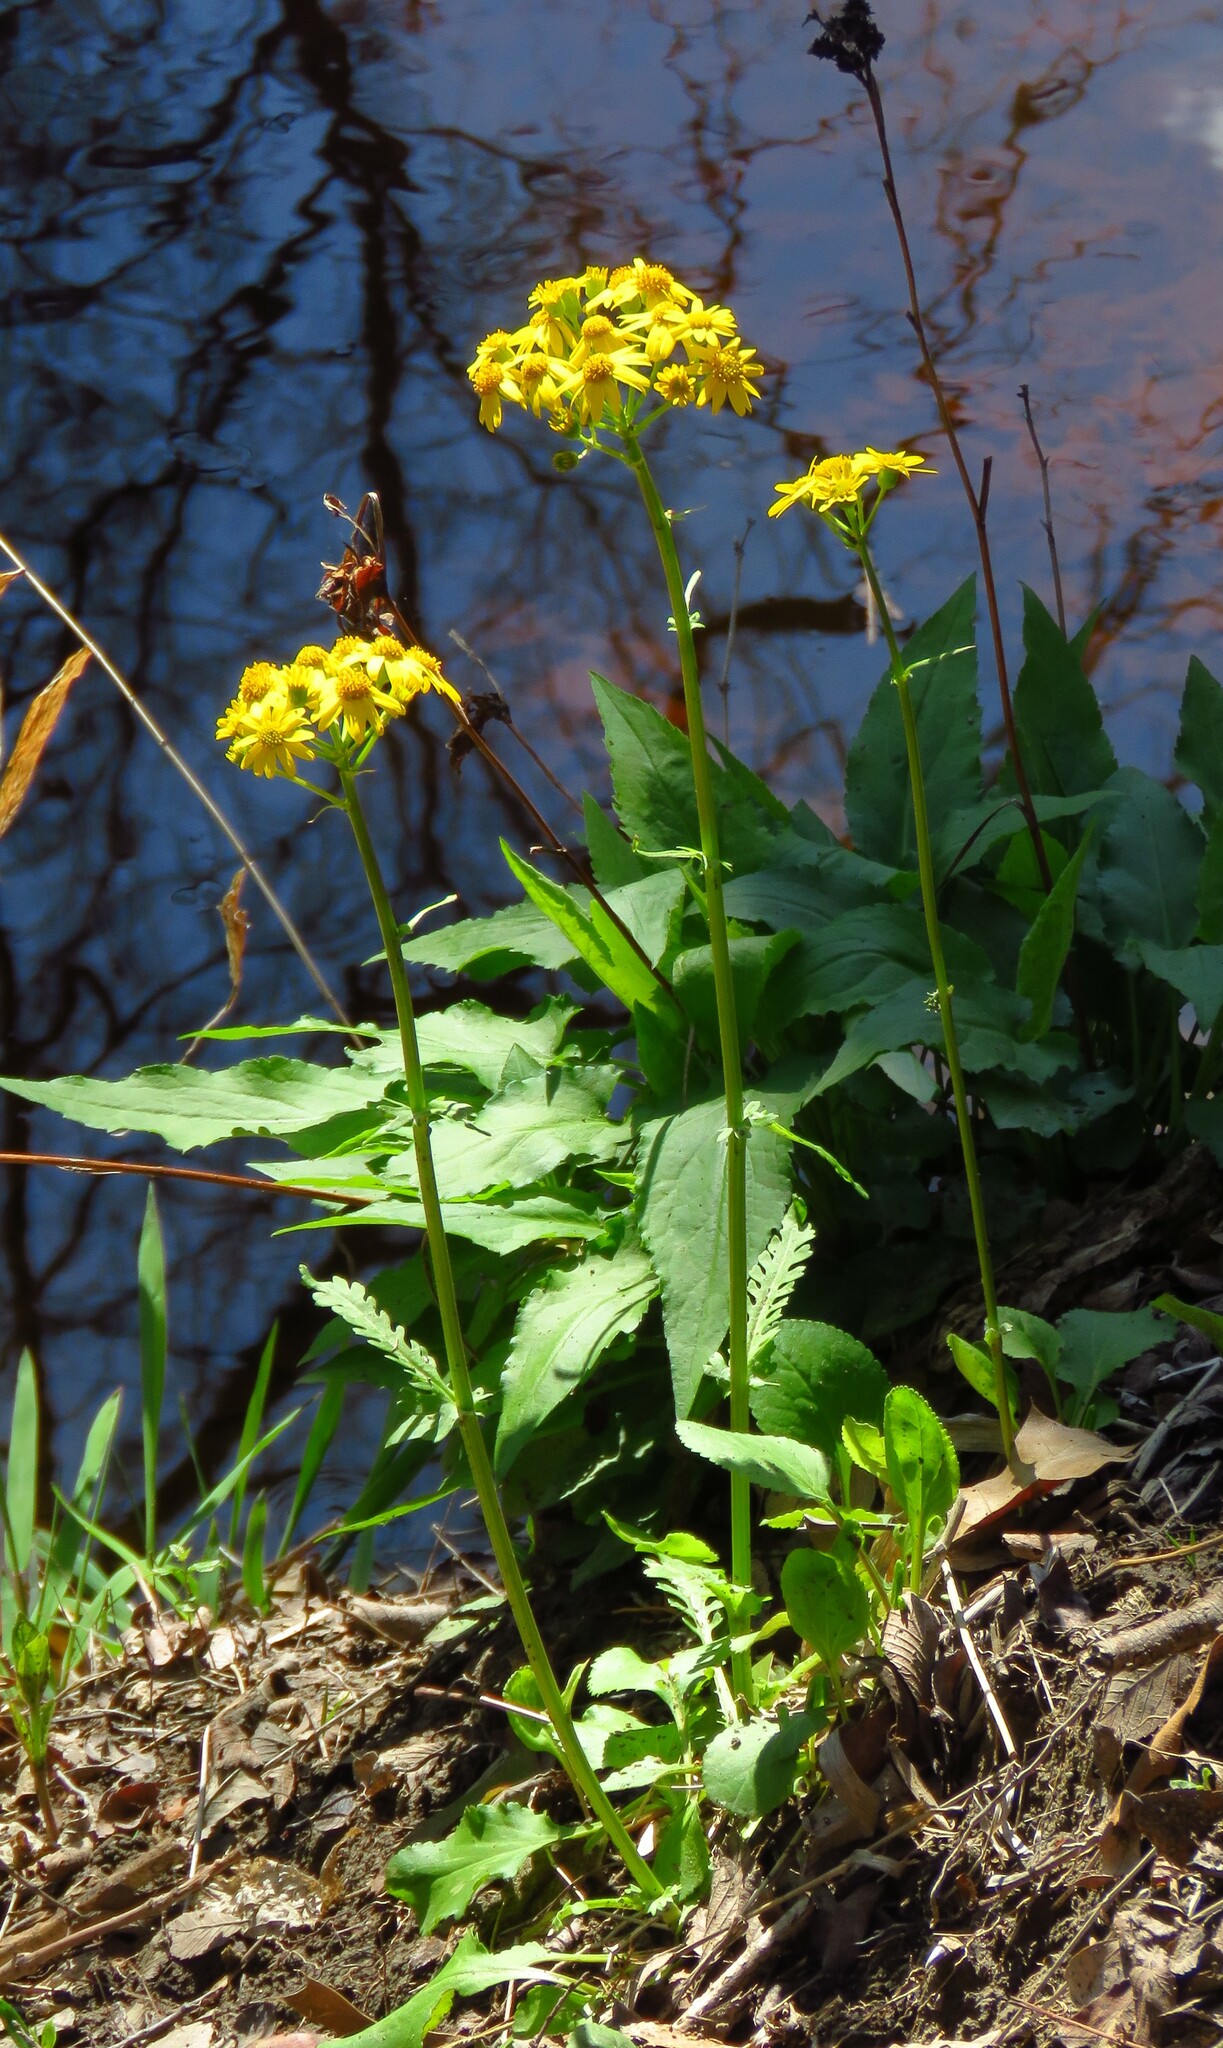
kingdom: Plantae
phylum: Tracheophyta
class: Magnoliopsida
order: Asterales
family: Asteraceae
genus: Packera
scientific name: Packera obovata
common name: Round-leaf ragwort
